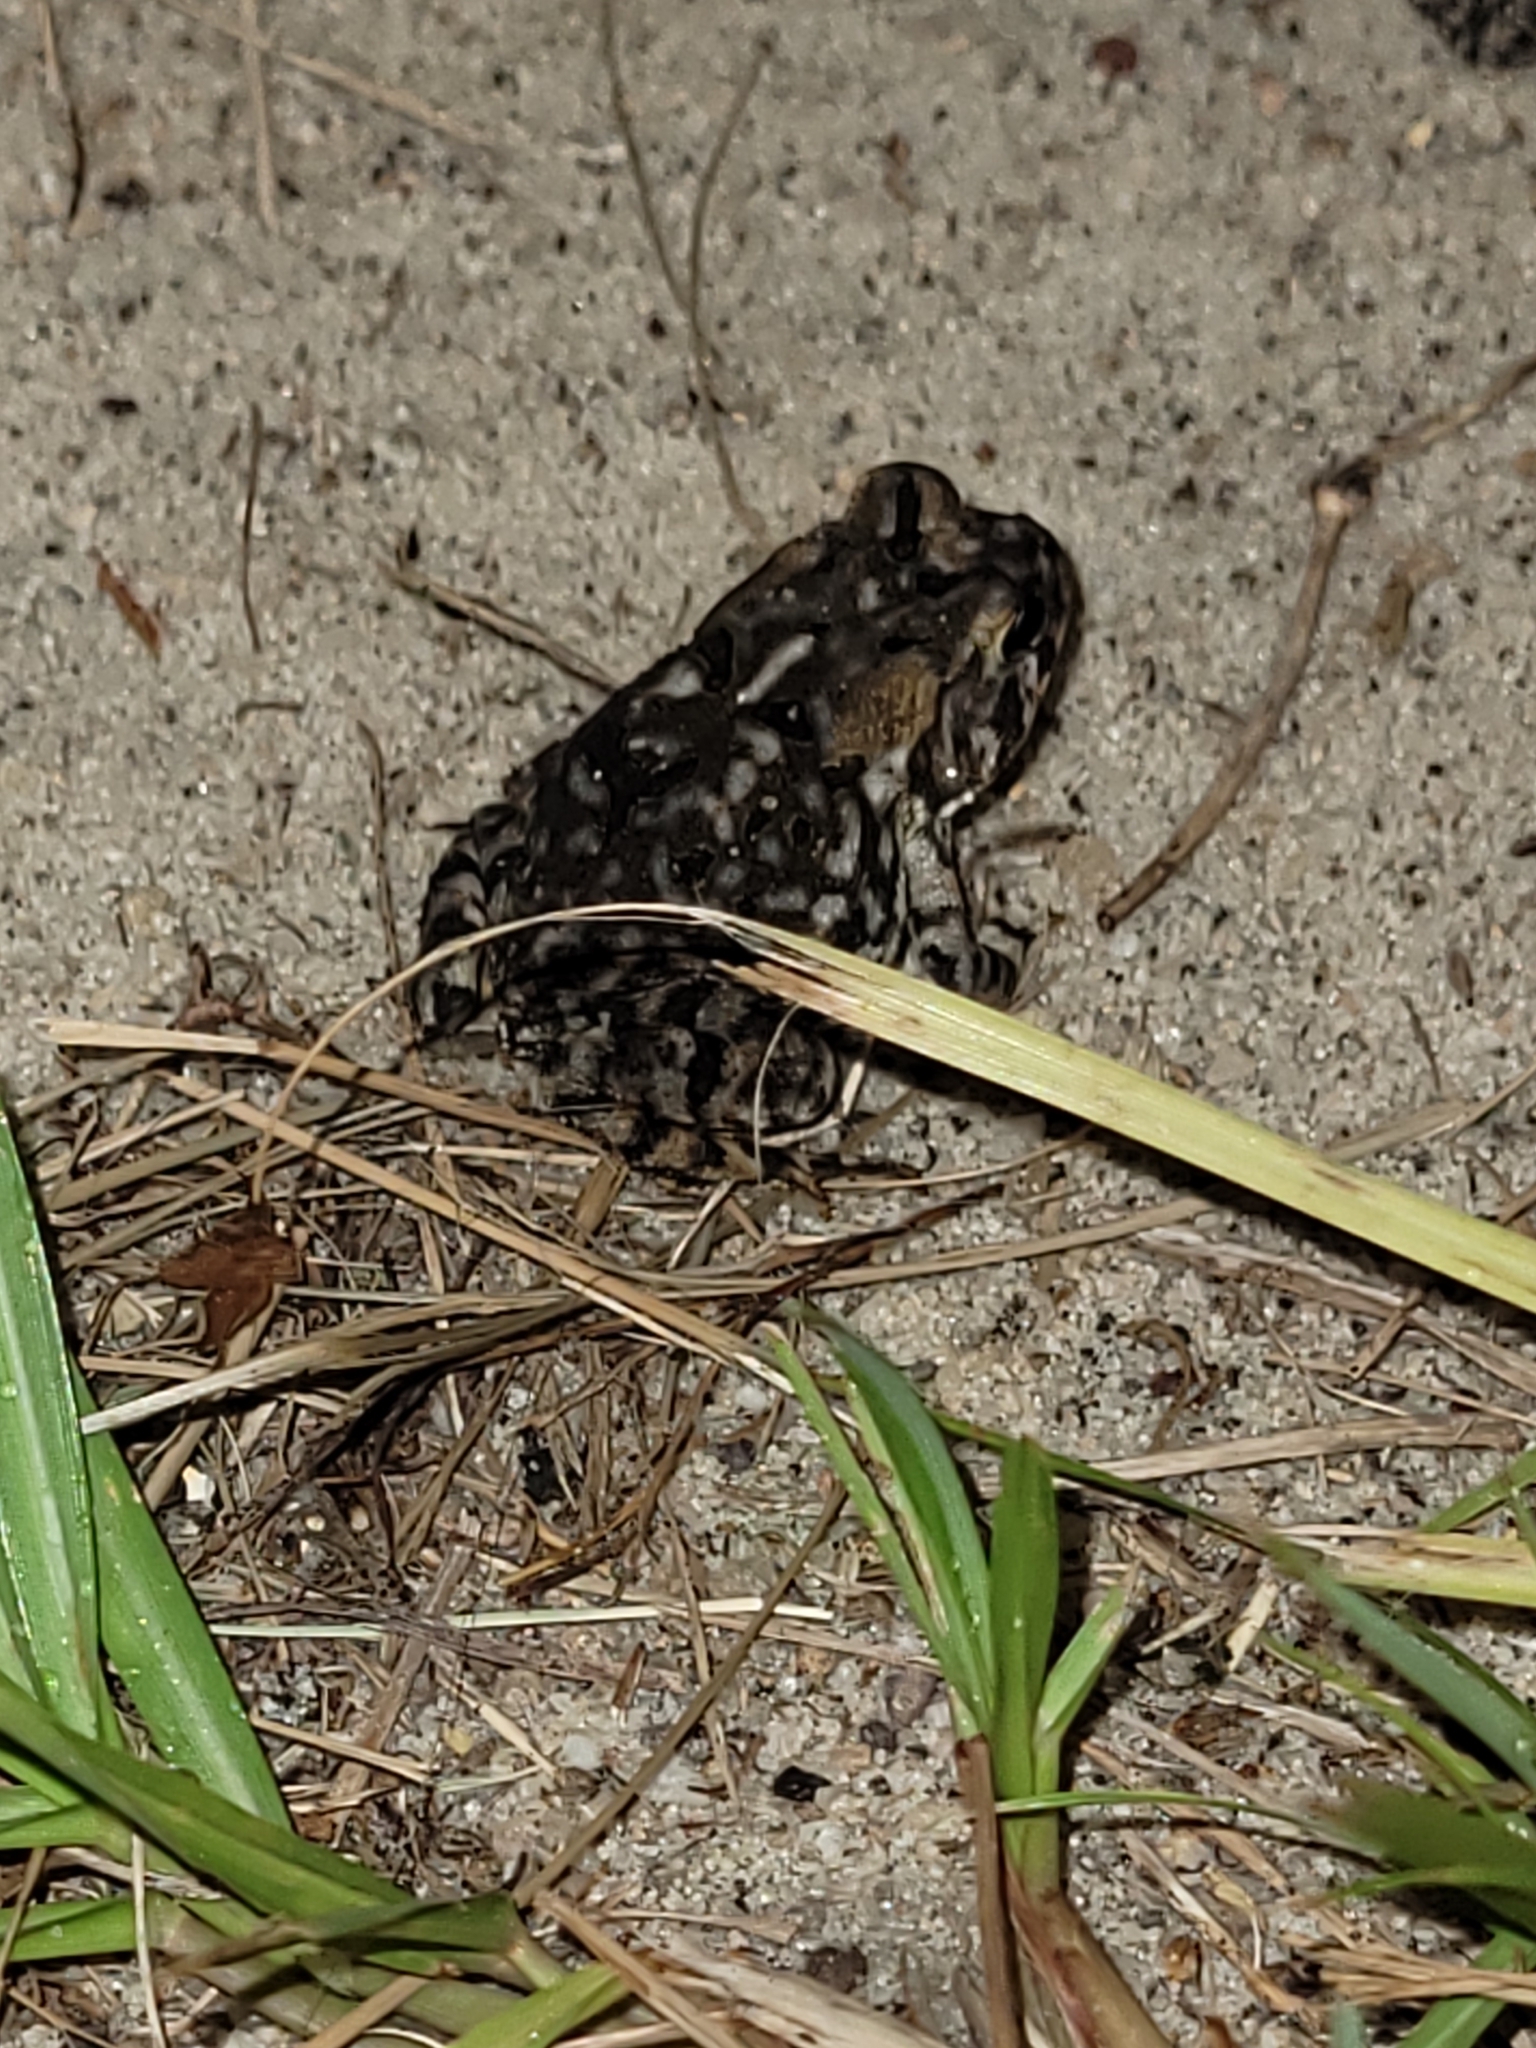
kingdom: Animalia
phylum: Chordata
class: Amphibia
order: Anura
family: Bufonidae
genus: Anaxyrus
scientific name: Anaxyrus terrestris
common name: Southern toad
